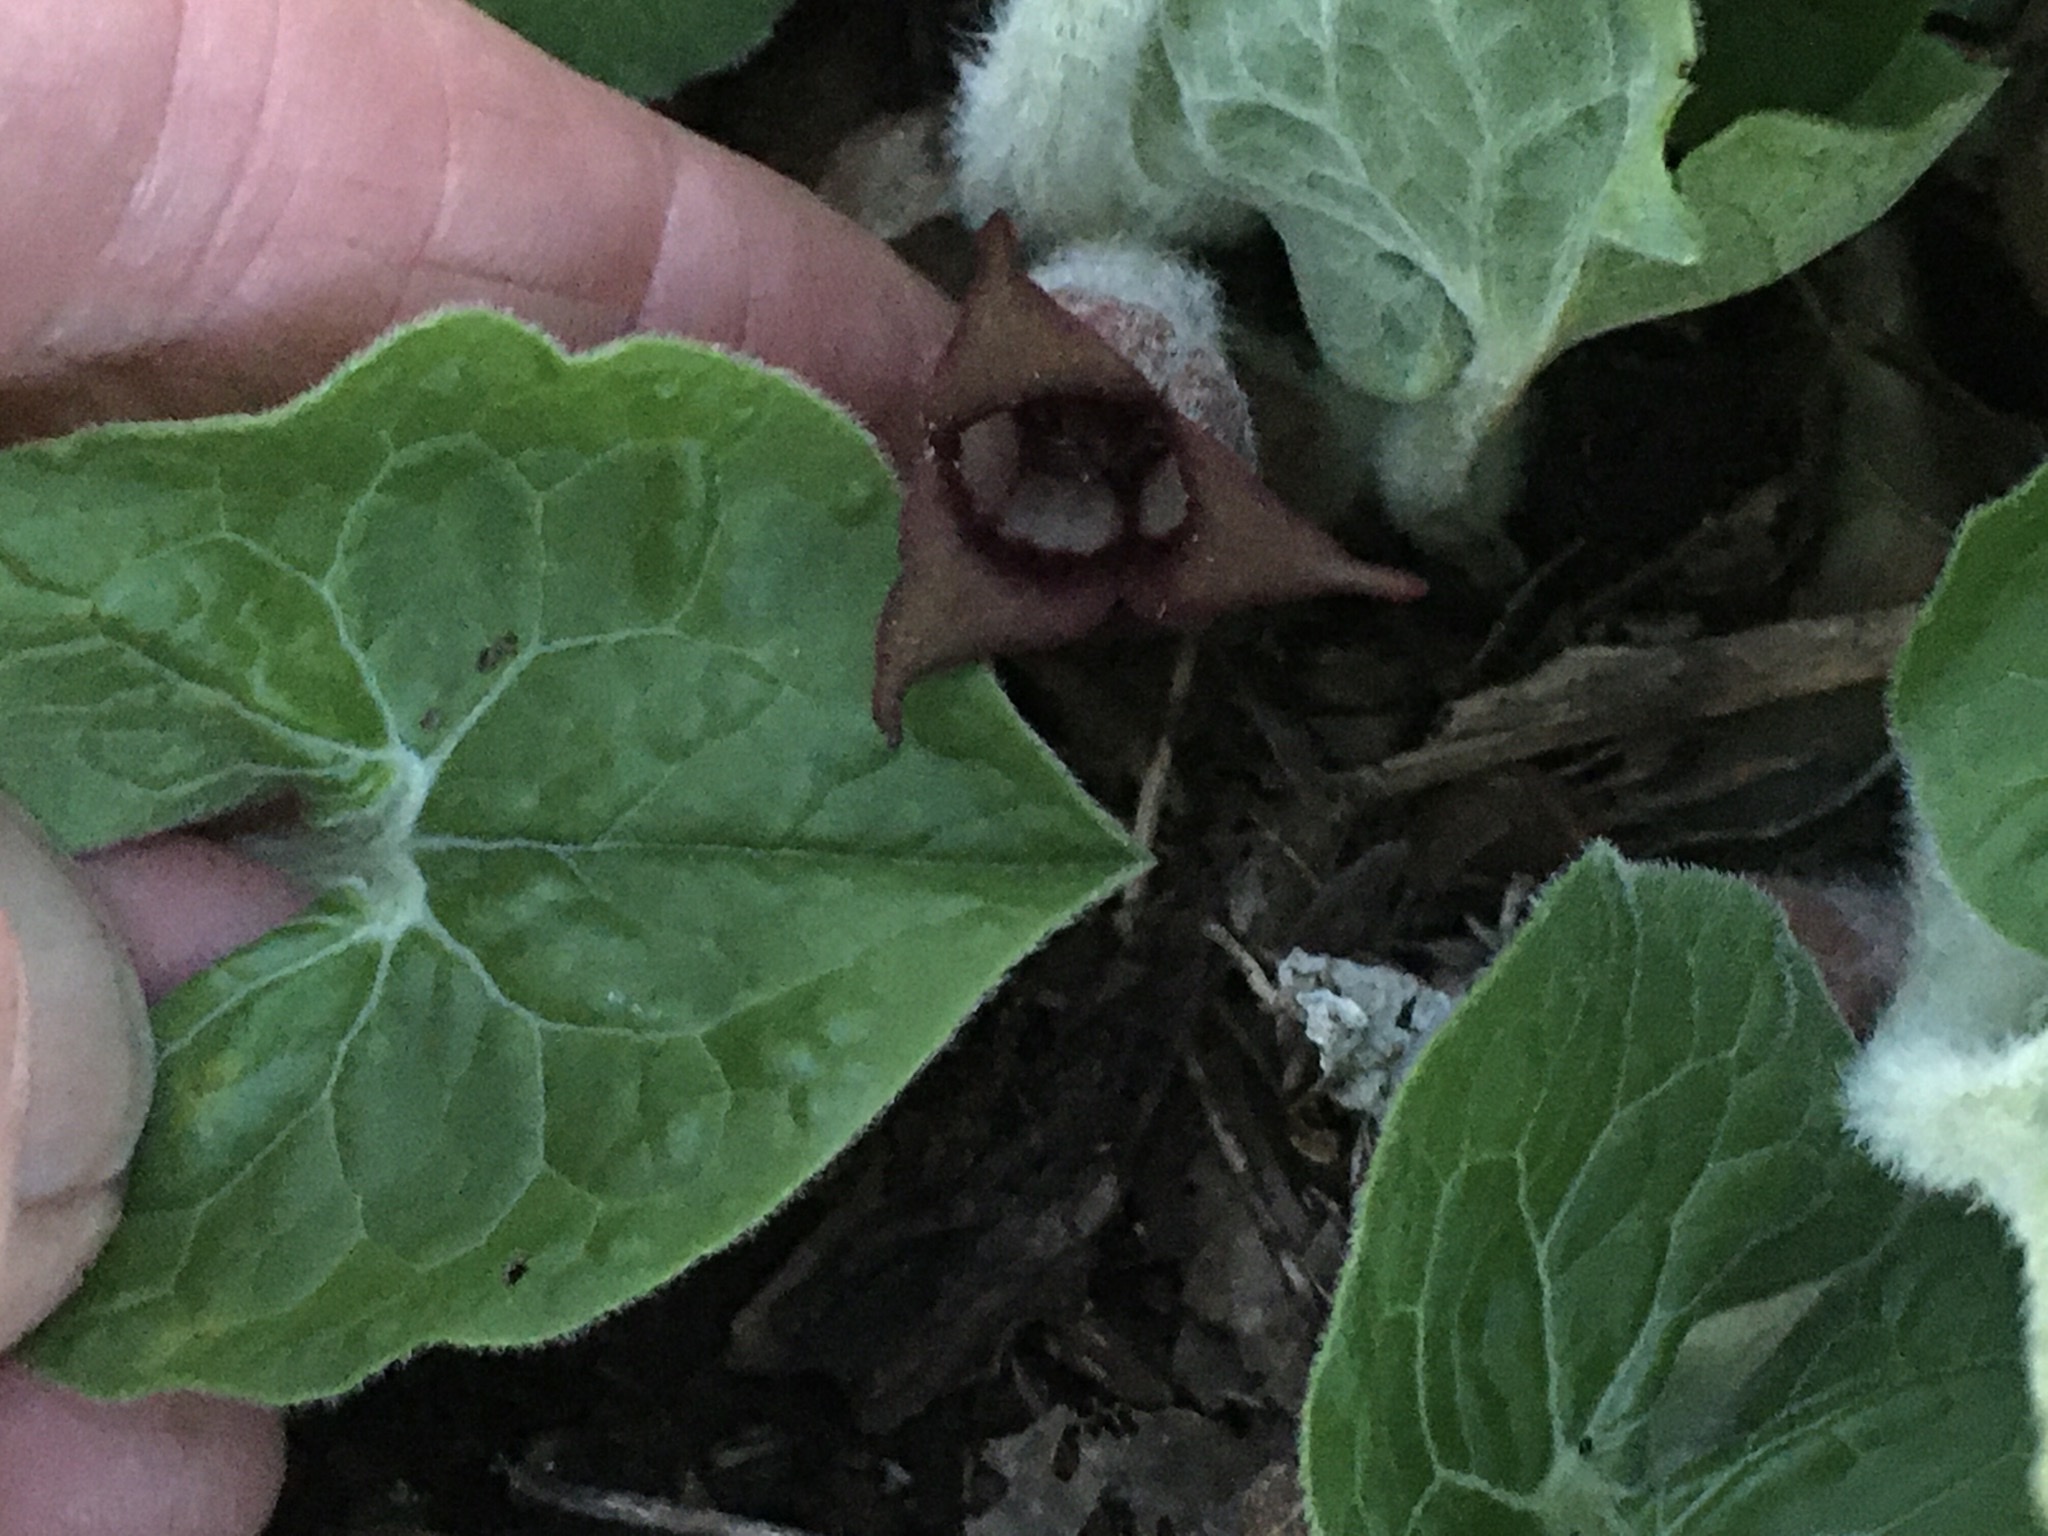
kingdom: Plantae
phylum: Tracheophyta
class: Magnoliopsida
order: Piperales
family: Aristolochiaceae
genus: Asarum
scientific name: Asarum canadense
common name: Wild ginger
